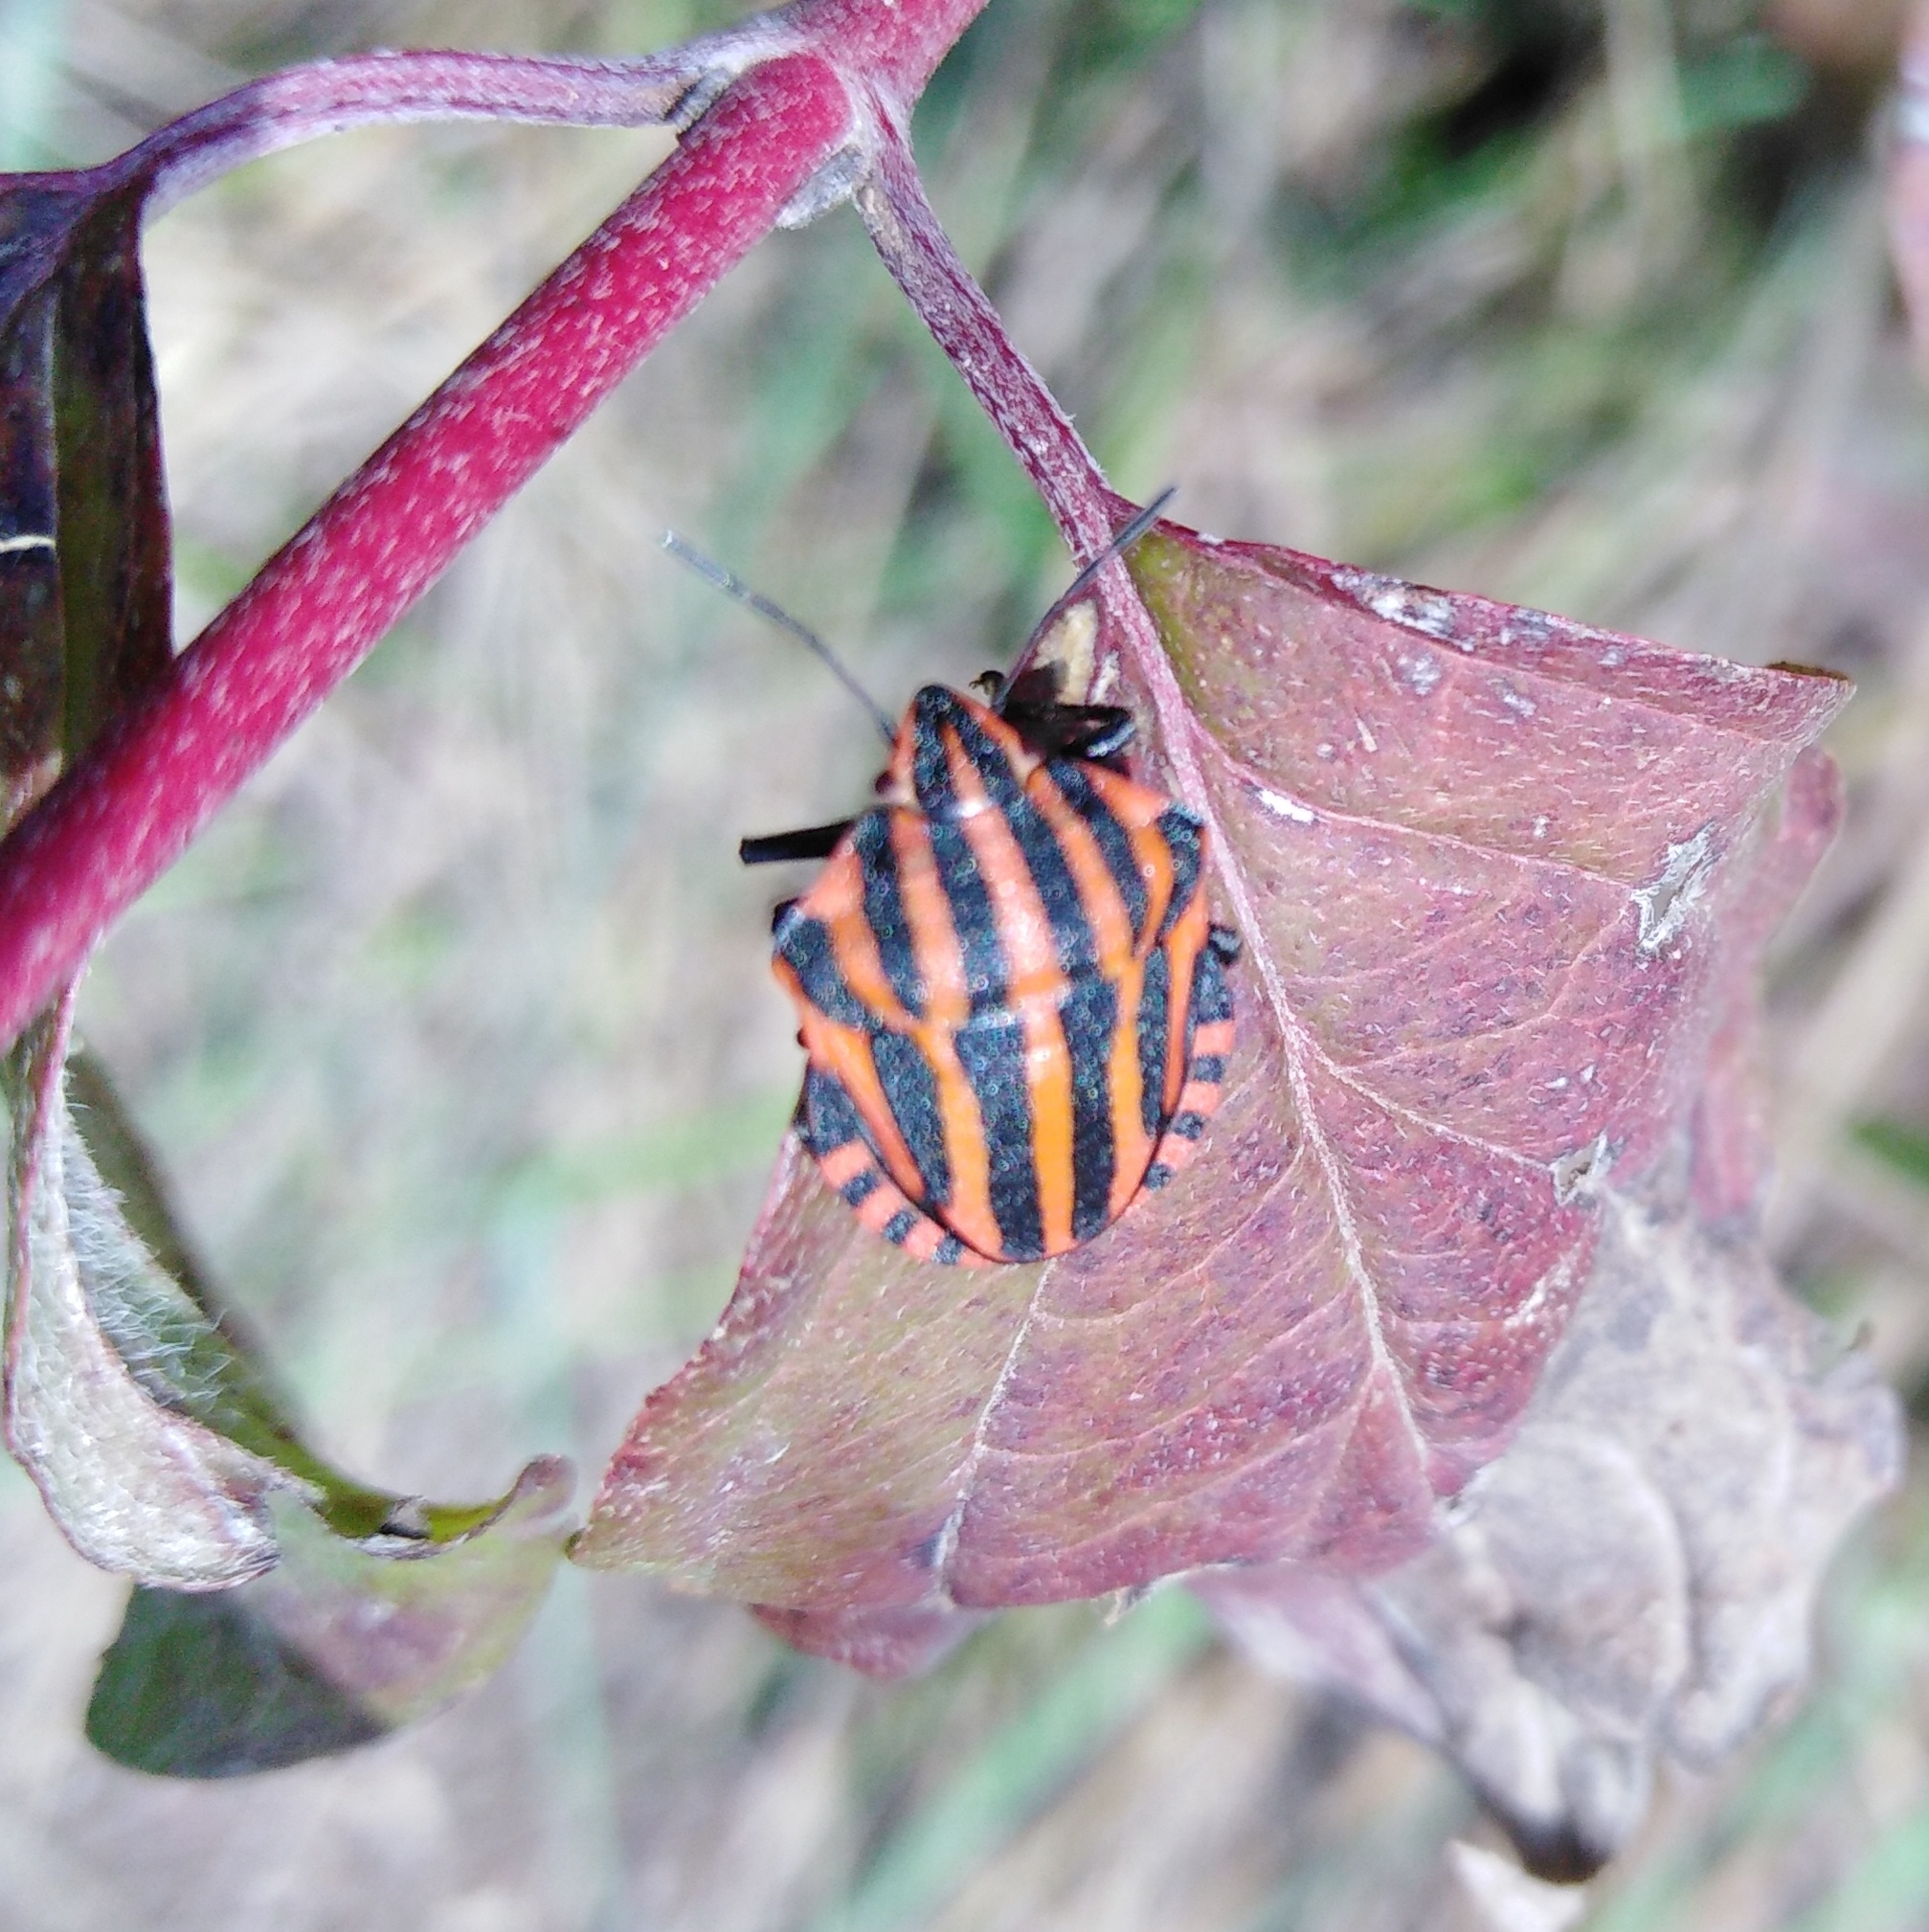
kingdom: Animalia
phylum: Arthropoda
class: Insecta
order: Hemiptera
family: Pentatomidae
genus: Graphosoma
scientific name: Graphosoma italicum
